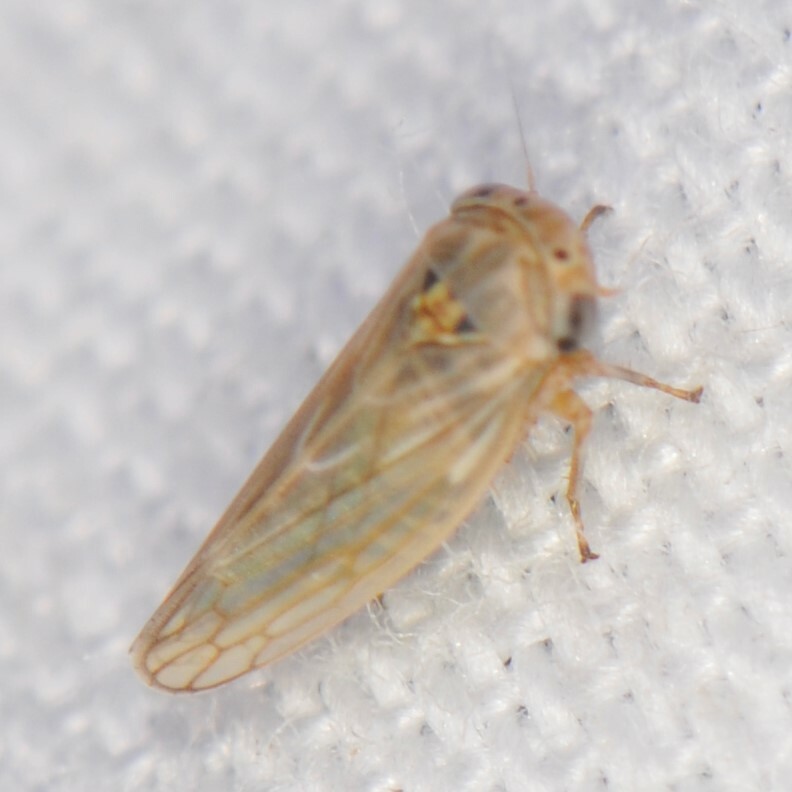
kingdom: Animalia
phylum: Arthropoda
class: Insecta
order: Hemiptera
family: Cicadellidae
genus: Ceratagallia
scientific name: Ceratagallia
